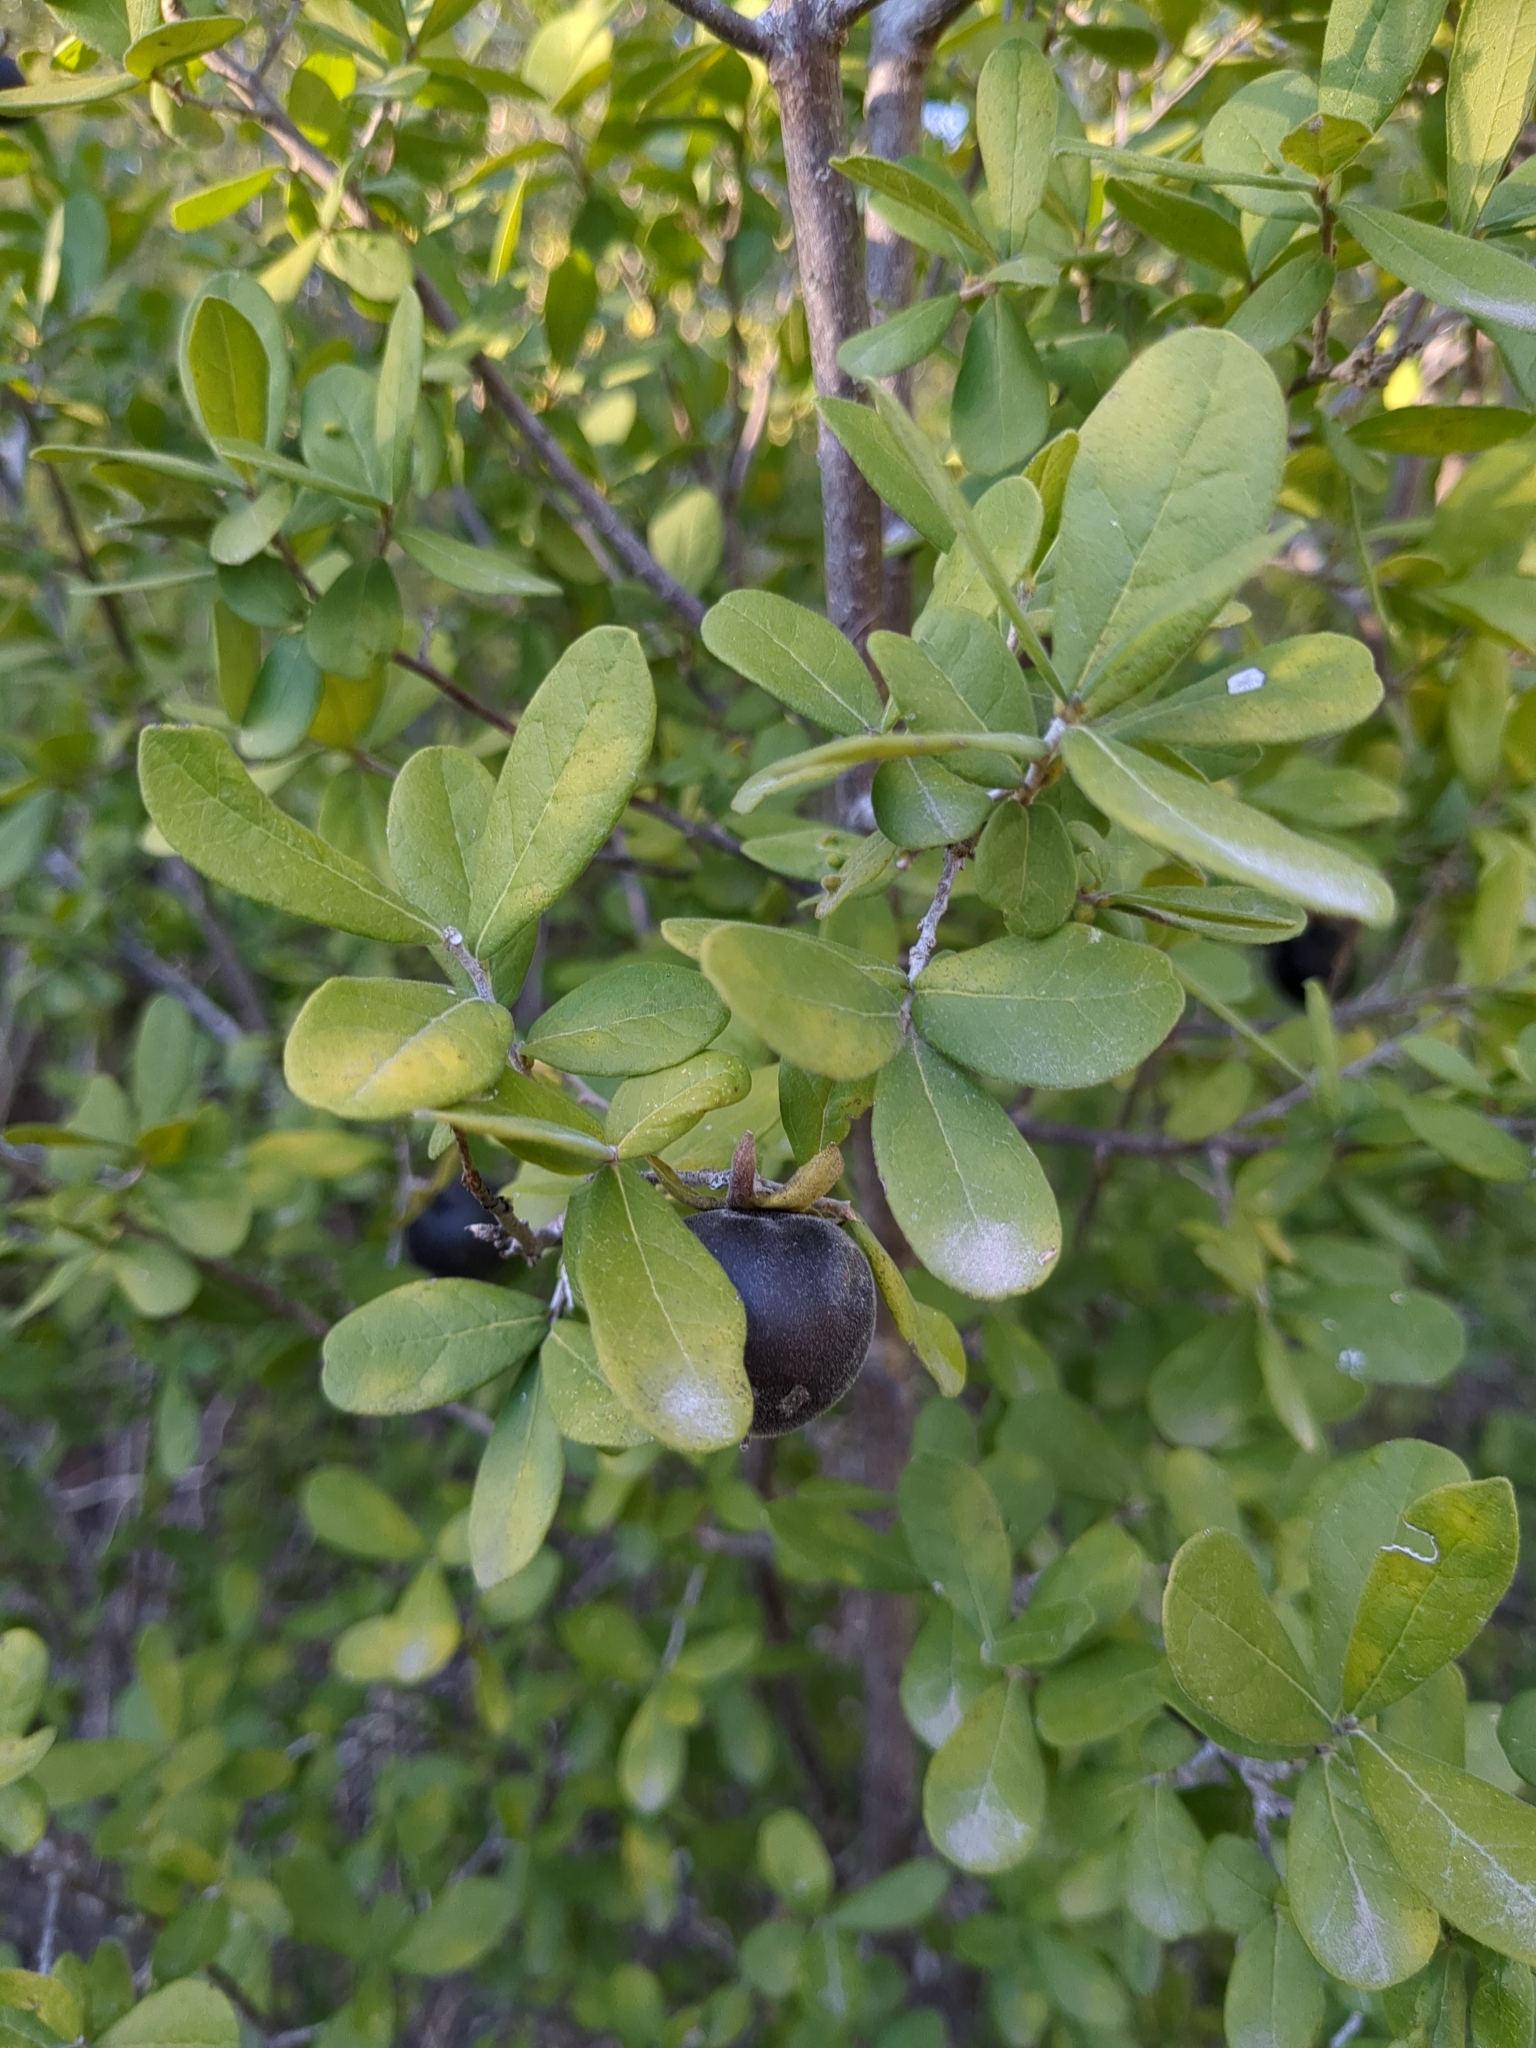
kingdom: Plantae
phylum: Tracheophyta
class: Magnoliopsida
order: Ericales
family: Ebenaceae
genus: Diospyros
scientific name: Diospyros texana
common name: Texas persimmon
